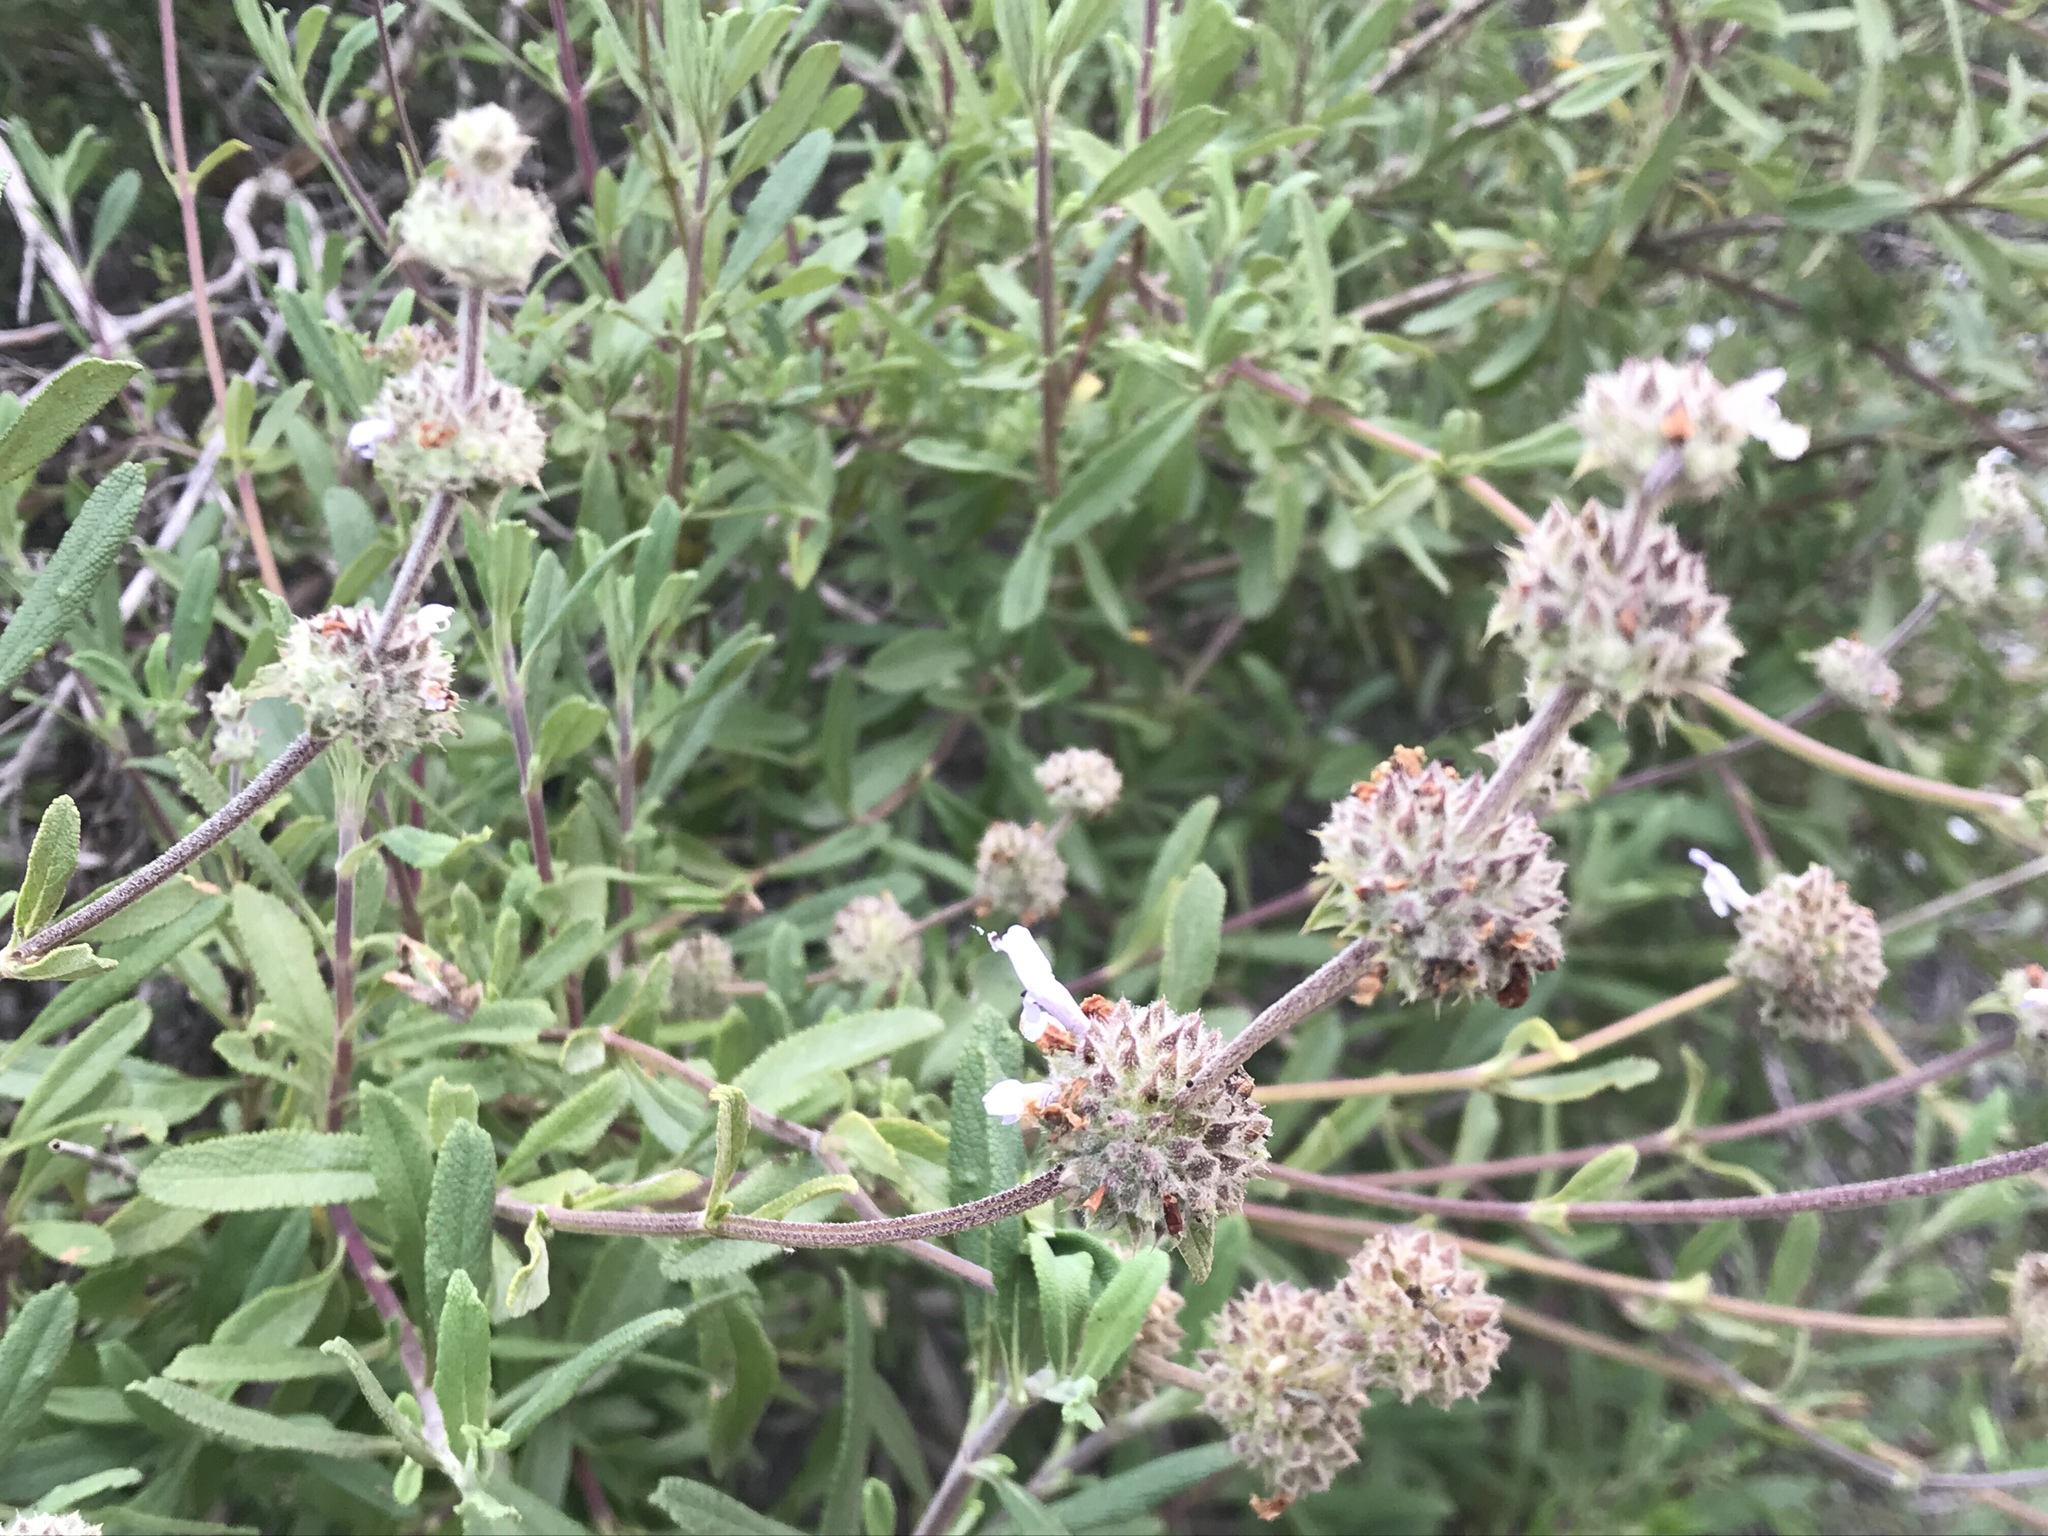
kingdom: Plantae
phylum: Tracheophyta
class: Magnoliopsida
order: Lamiales
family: Lamiaceae
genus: Salvia
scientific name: Salvia mellifera
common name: Black sage
